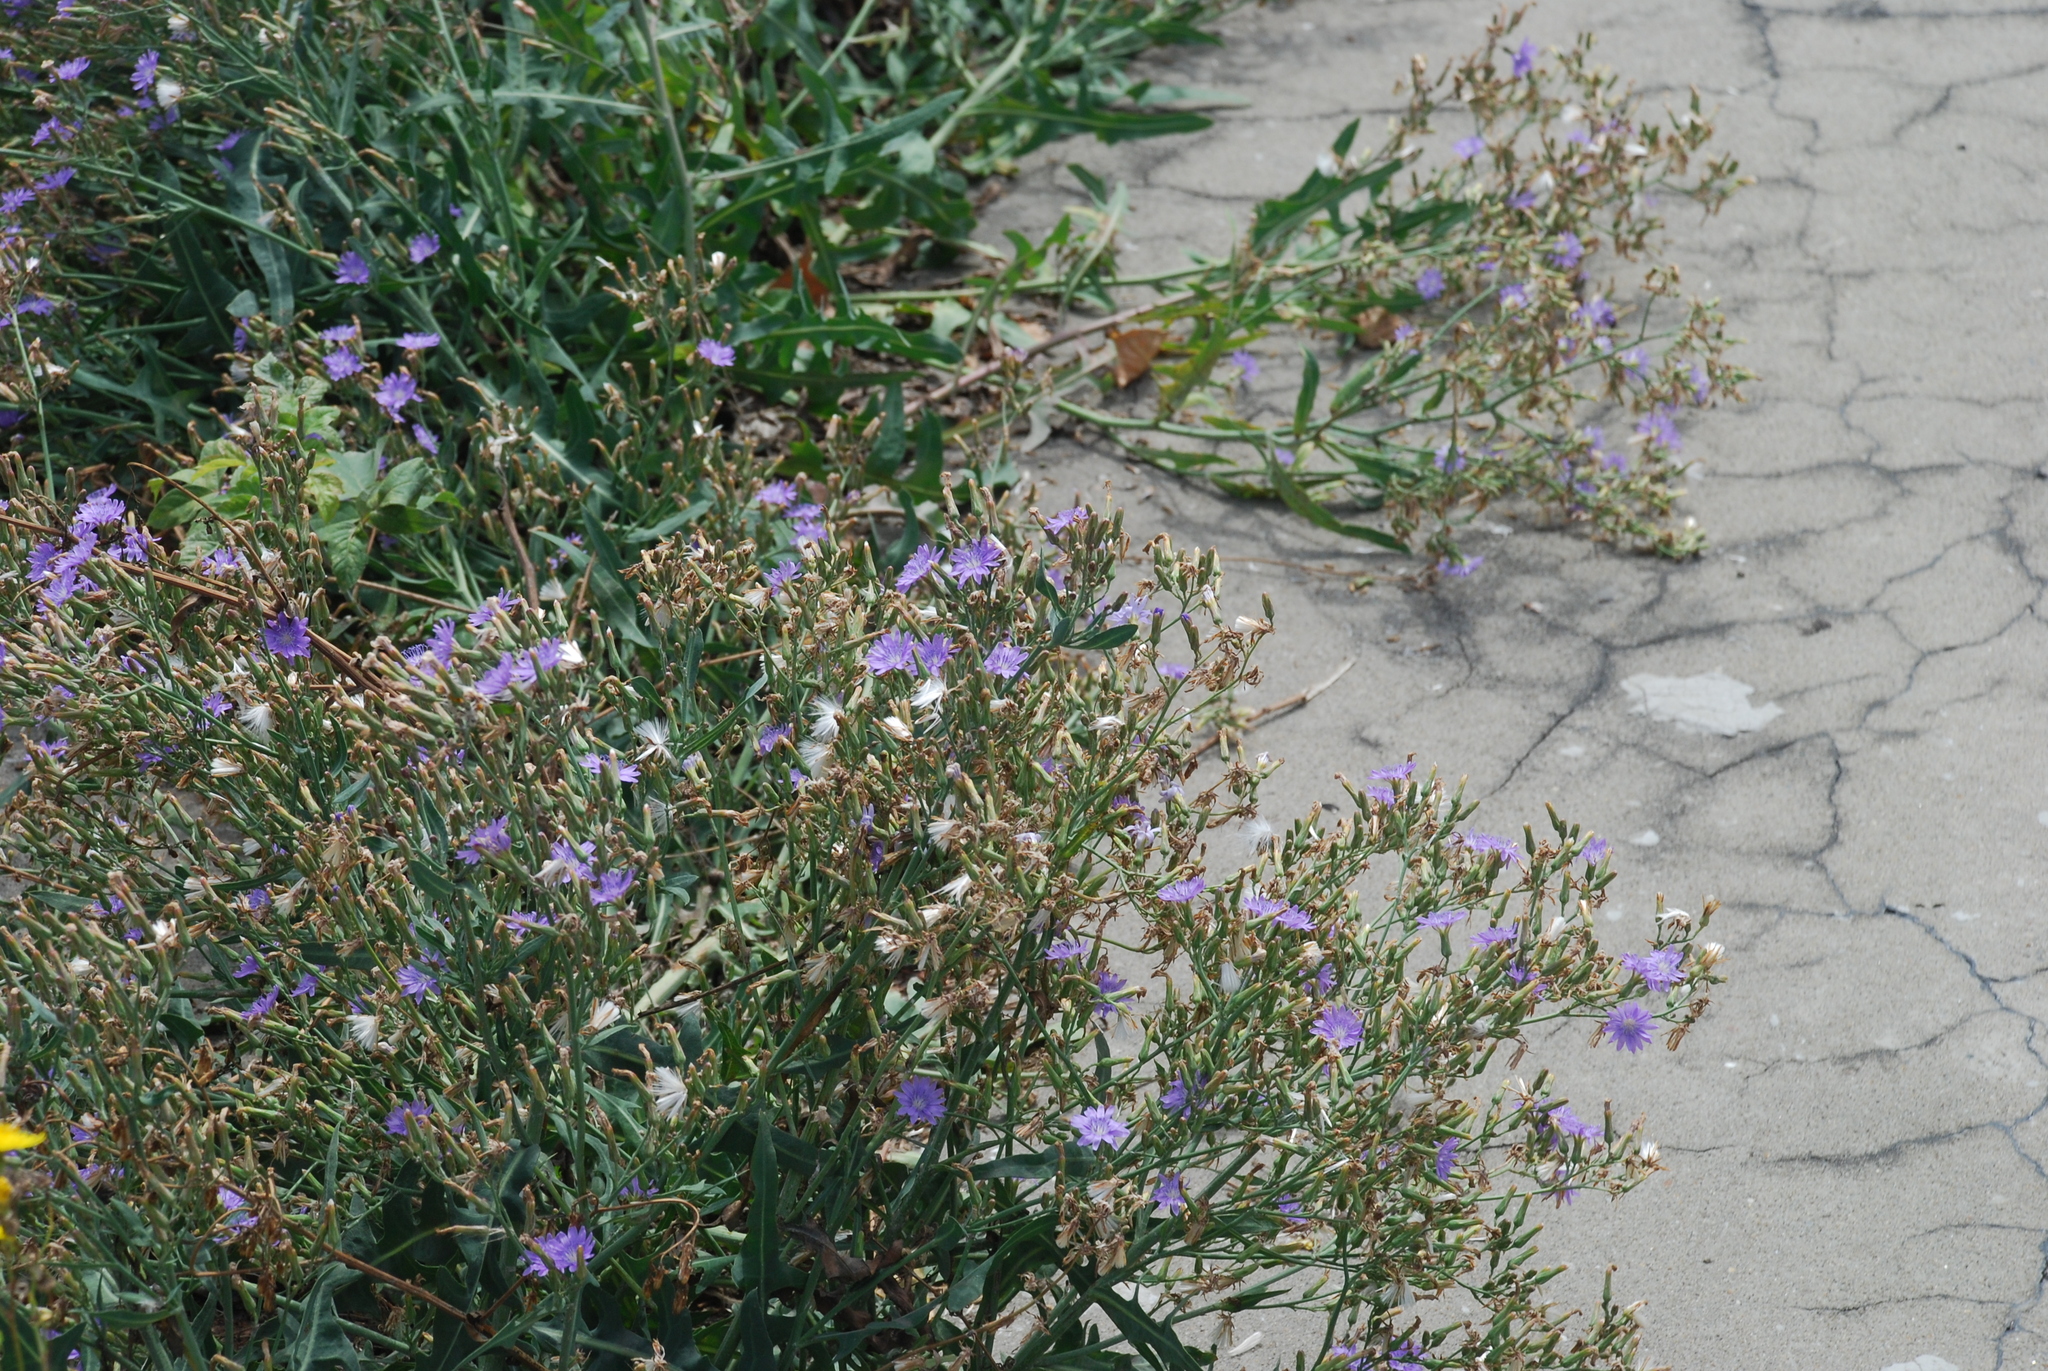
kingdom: Plantae
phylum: Tracheophyta
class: Magnoliopsida
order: Asterales
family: Asteraceae
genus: Lactuca
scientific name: Lactuca tatarica
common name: Blue lettuce
